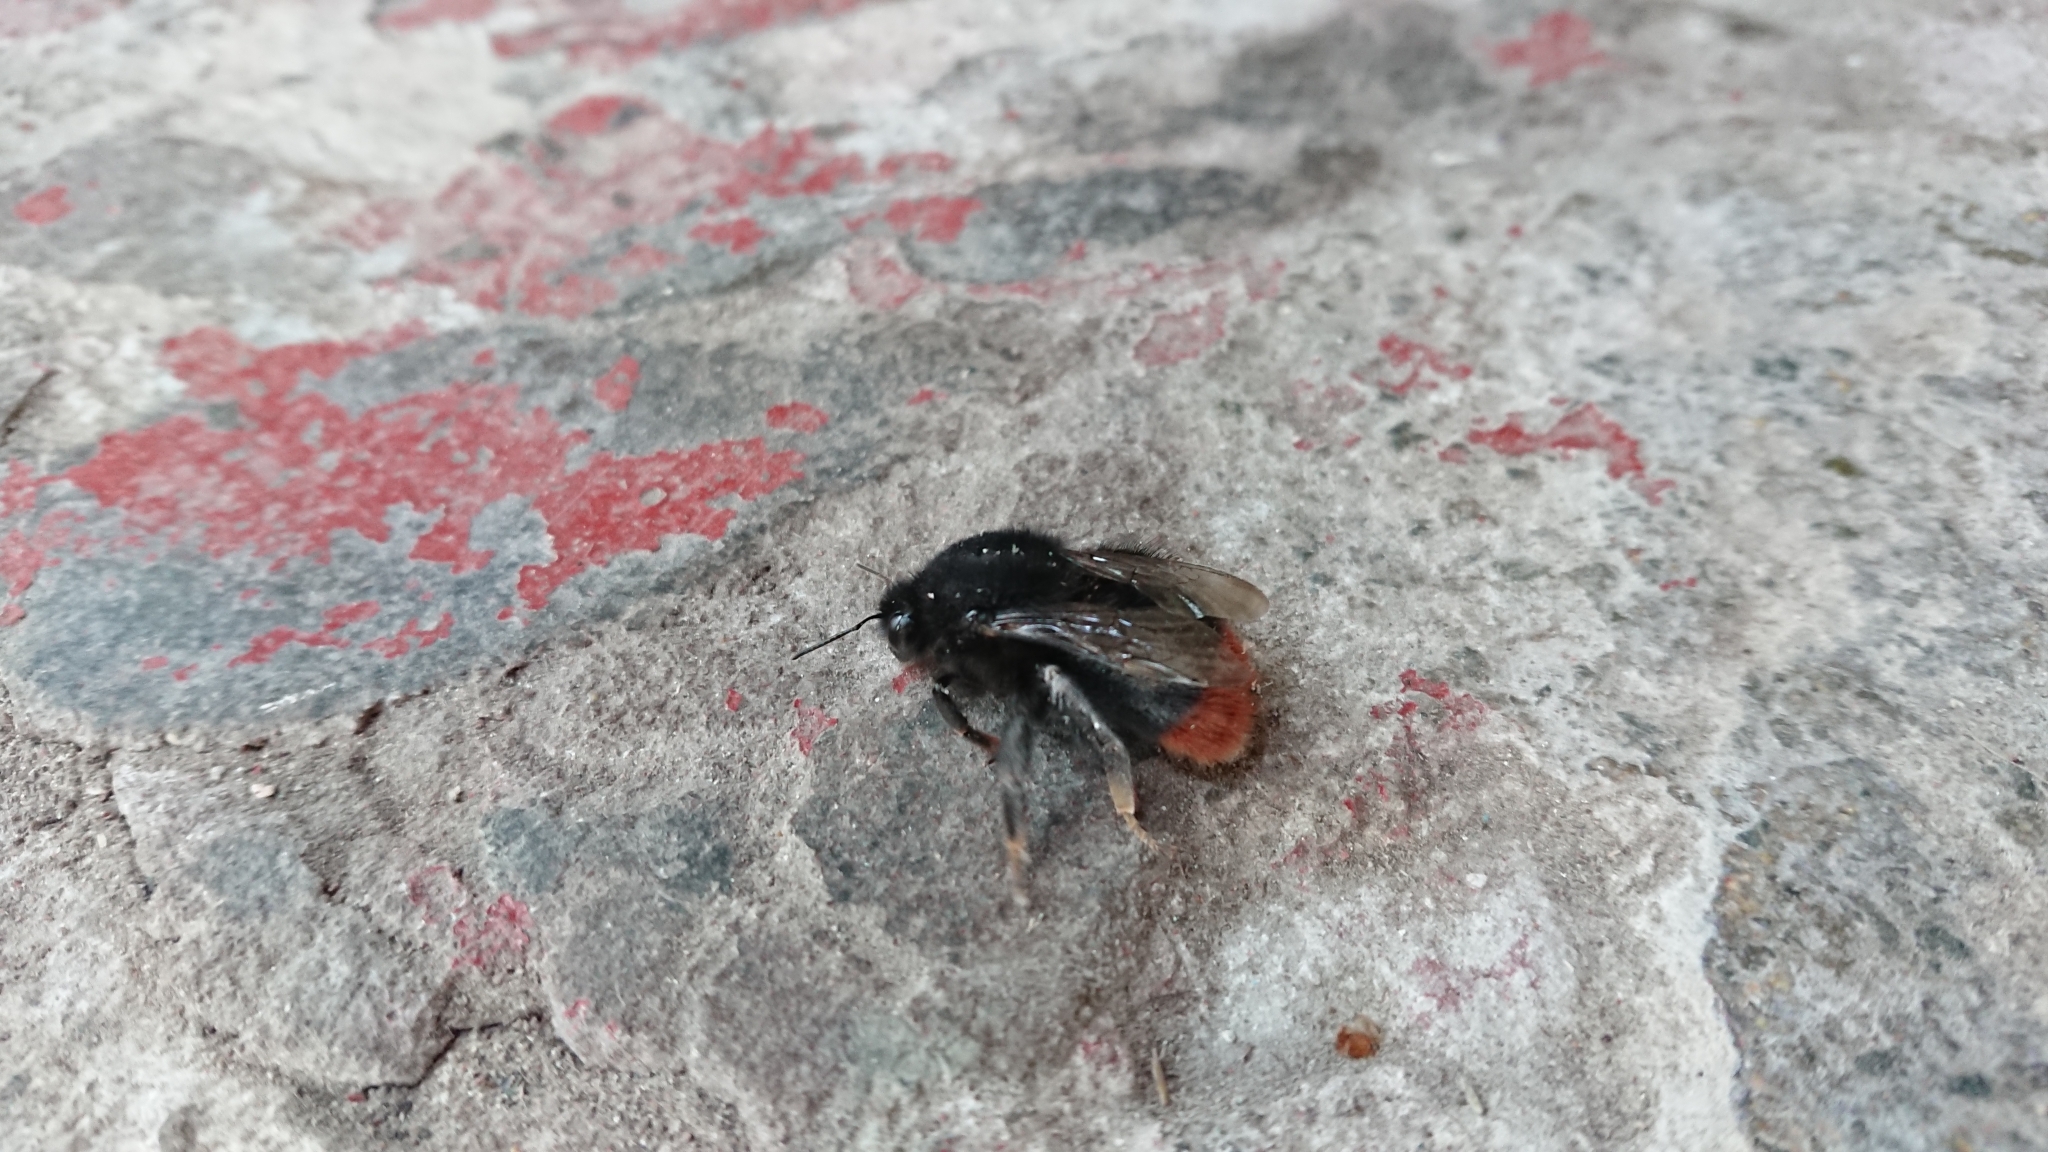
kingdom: Animalia
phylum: Arthropoda
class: Insecta
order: Hymenoptera
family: Apidae
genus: Bombus
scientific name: Bombus lapidarius
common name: Large red-tailed humble-bee
